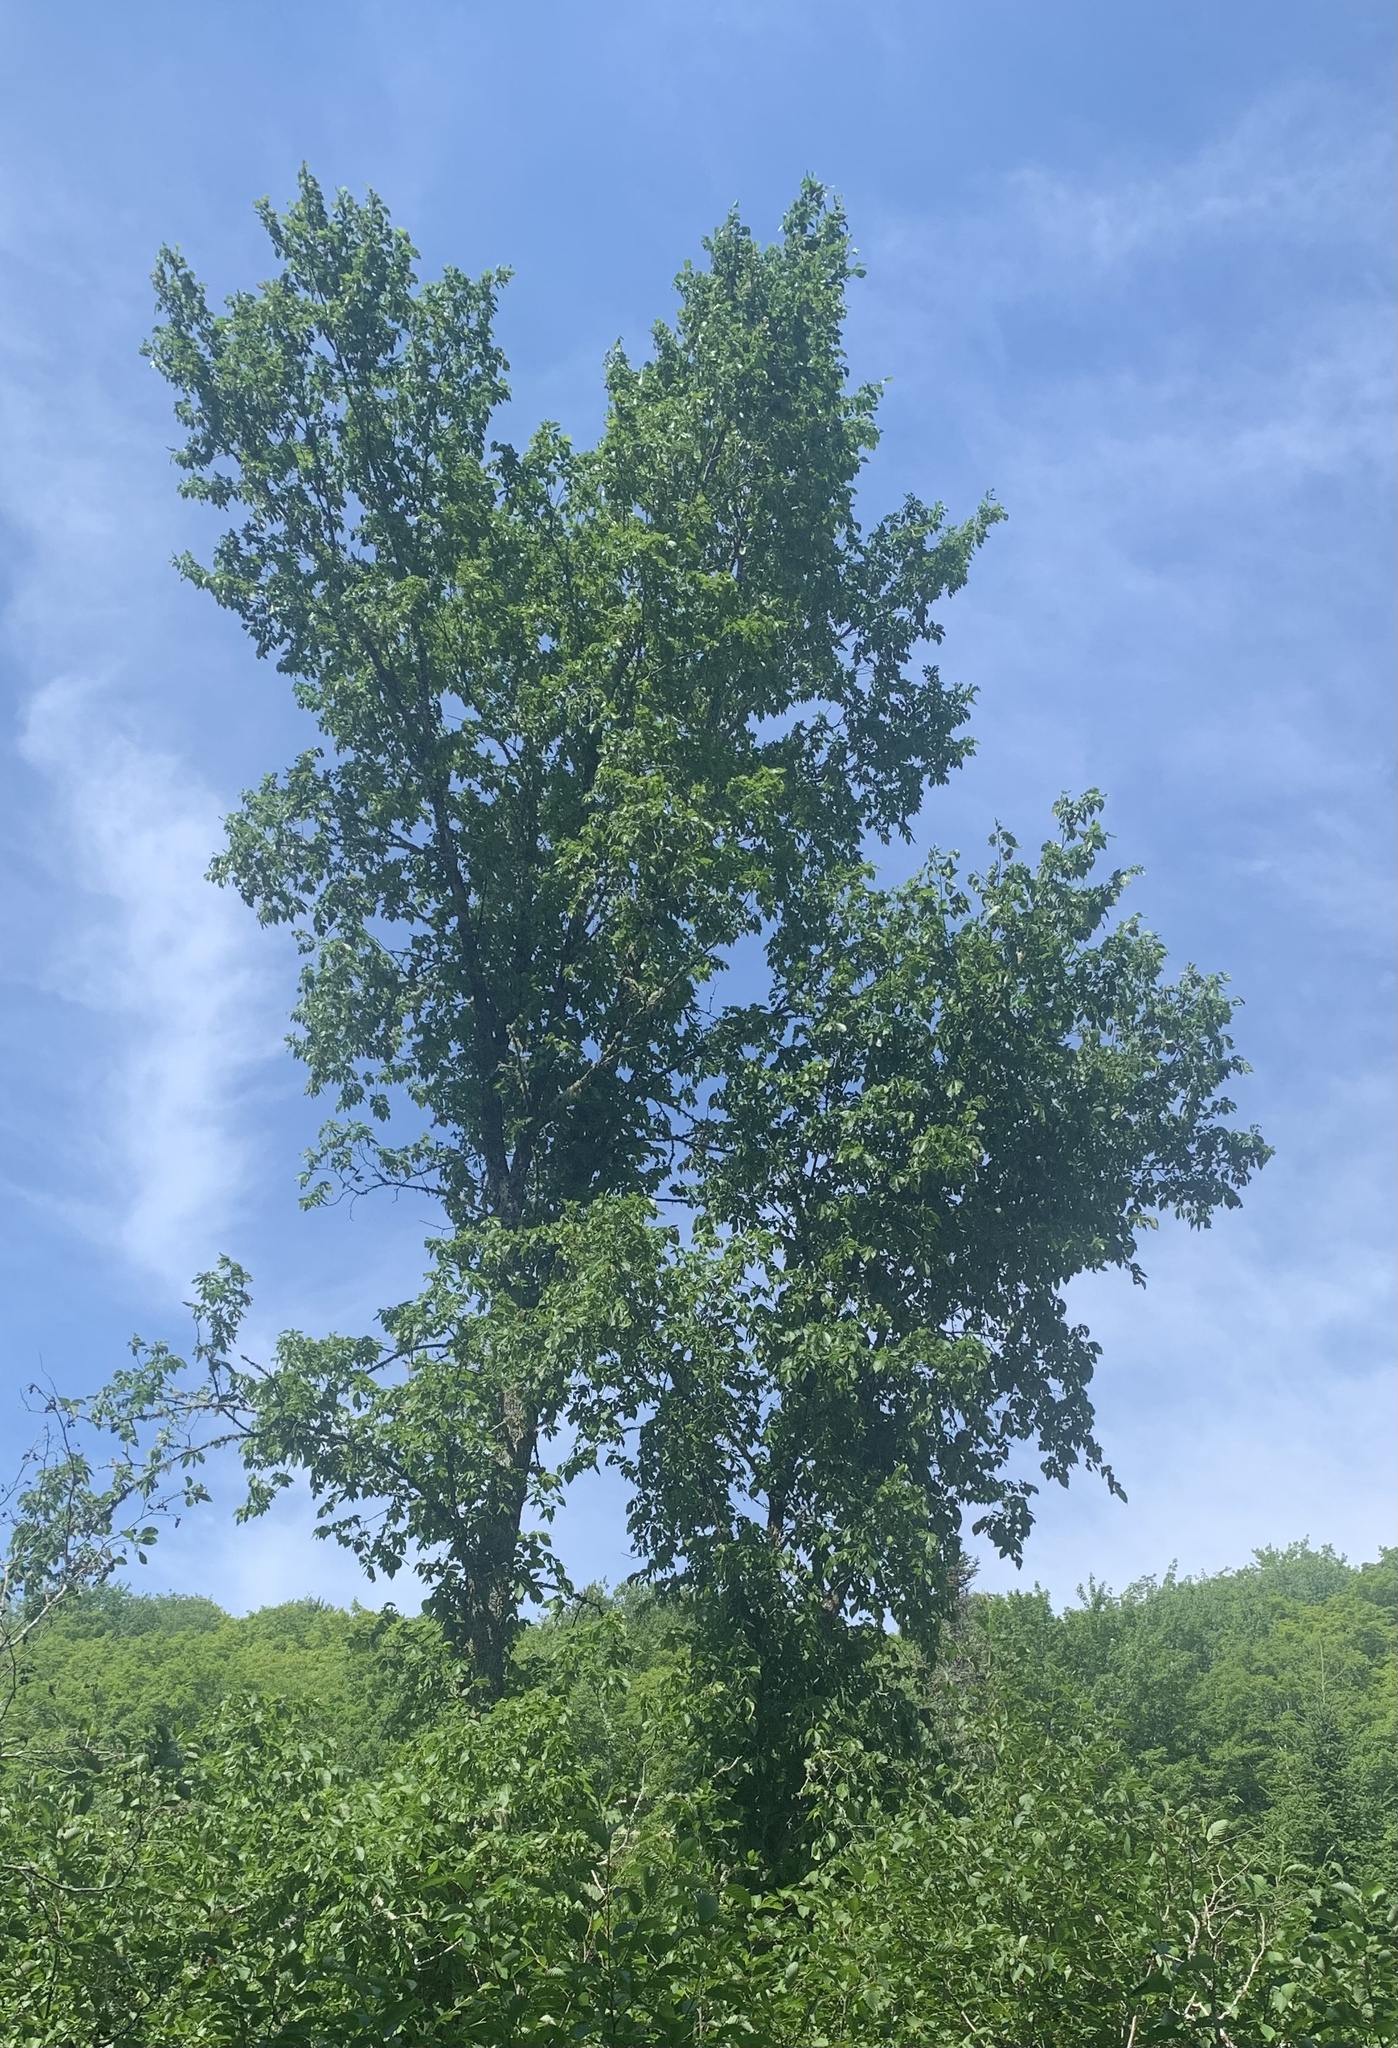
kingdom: Plantae
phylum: Tracheophyta
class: Magnoliopsida
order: Rosales
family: Ulmaceae
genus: Ulmus
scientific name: Ulmus americana
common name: American elm
